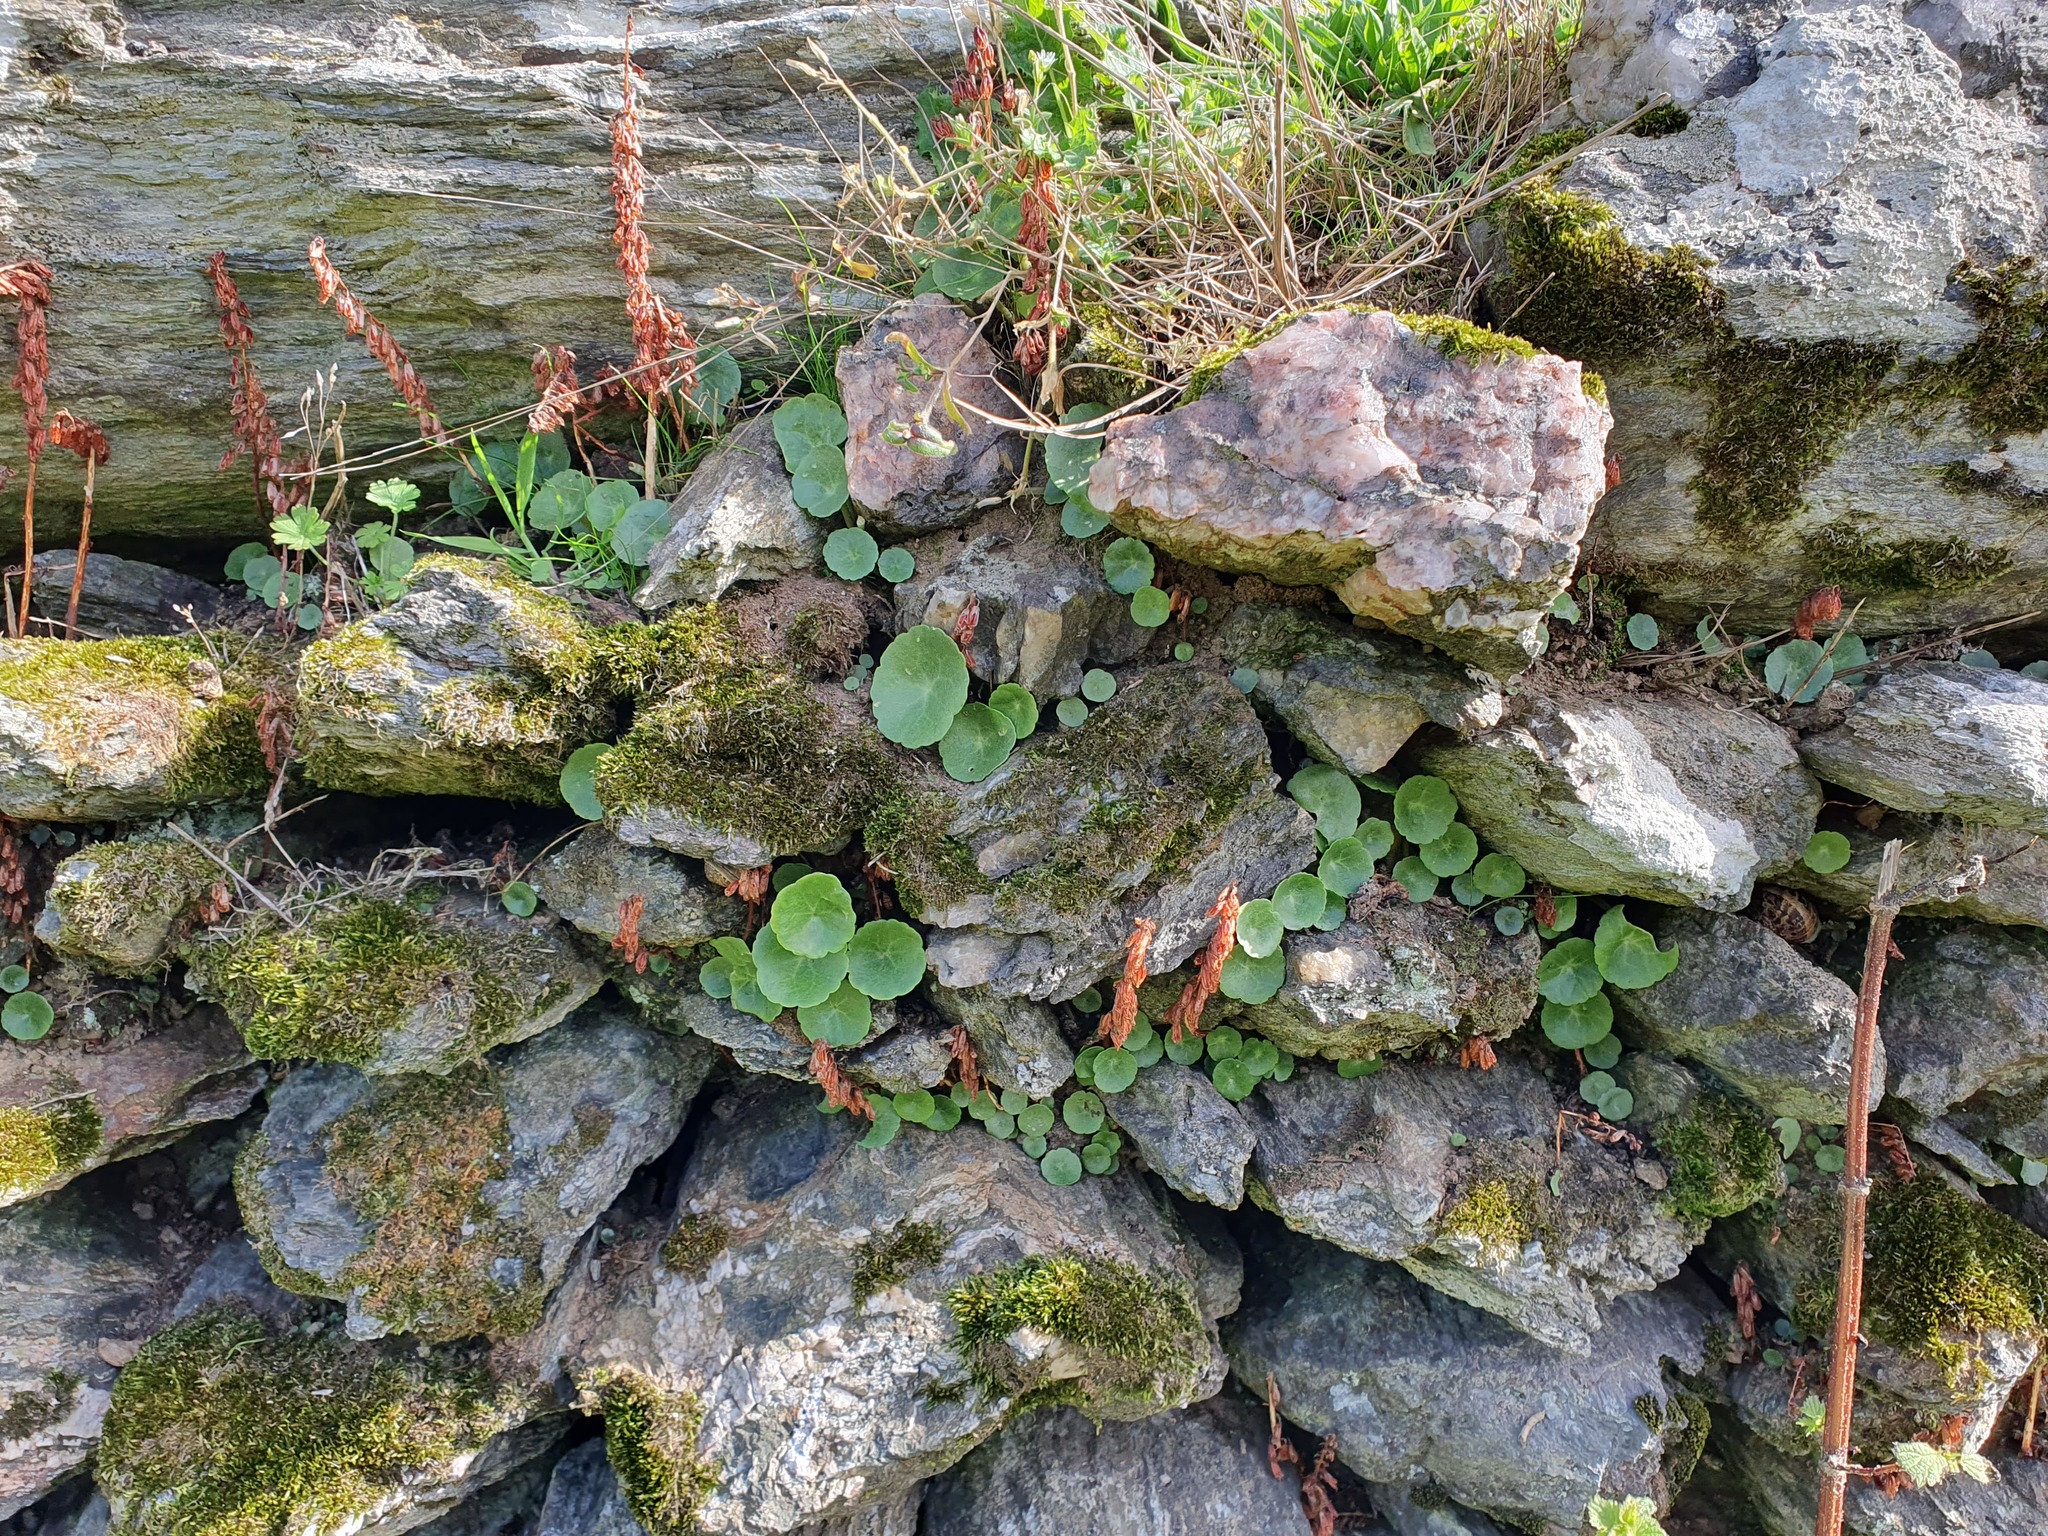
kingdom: Plantae
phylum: Tracheophyta
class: Magnoliopsida
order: Saxifragales
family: Crassulaceae
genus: Umbilicus
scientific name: Umbilicus rupestris
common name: Navelwort
